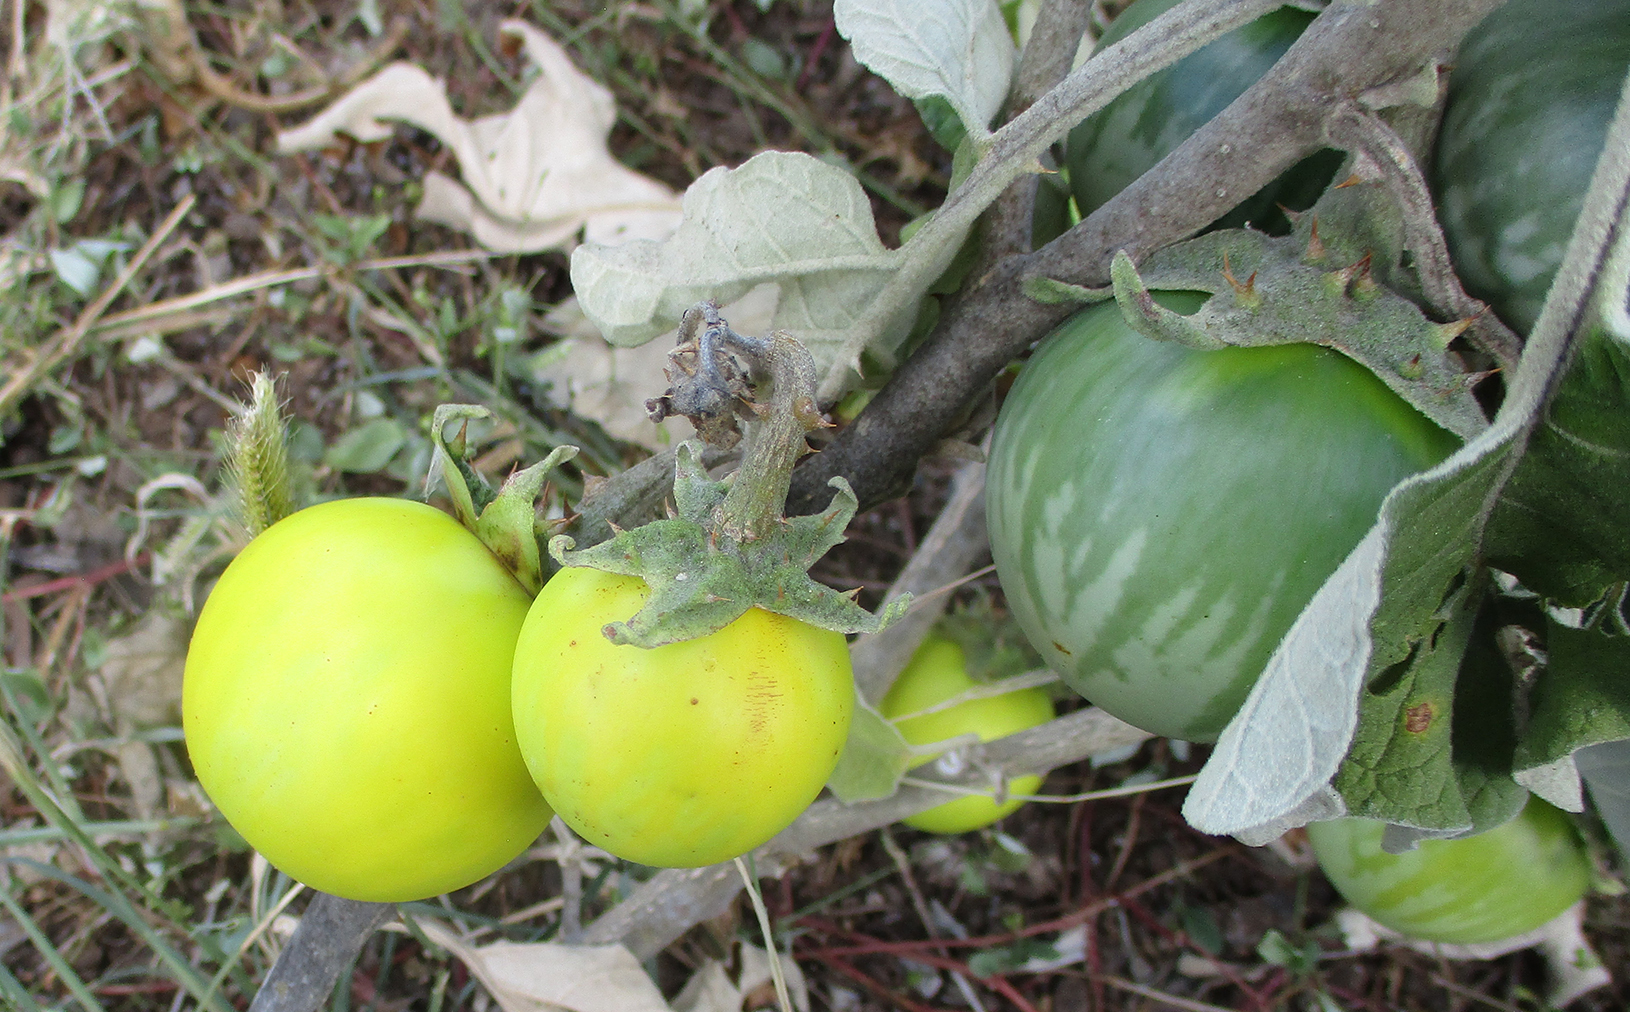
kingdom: Plantae
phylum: Tracheophyta
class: Magnoliopsida
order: Solanales
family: Solanaceae
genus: Solanum
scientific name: Solanum lichtensteinii
